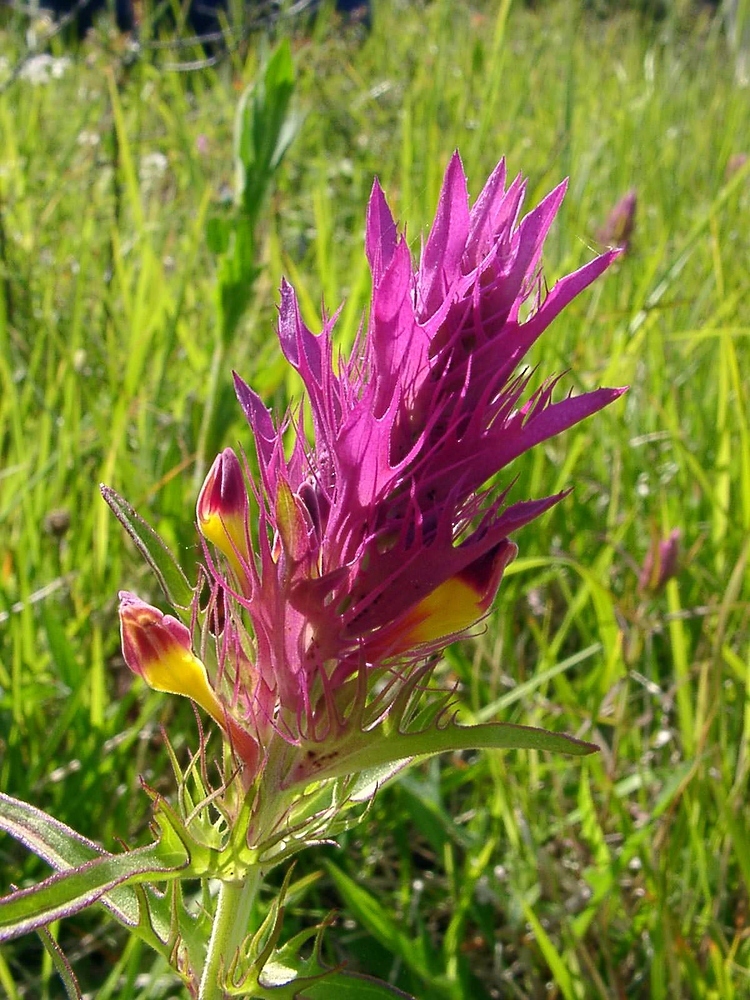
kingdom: Plantae
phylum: Tracheophyta
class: Magnoliopsida
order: Lamiales
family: Orobanchaceae
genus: Melampyrum
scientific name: Melampyrum arvense
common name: Field cow-wheat
